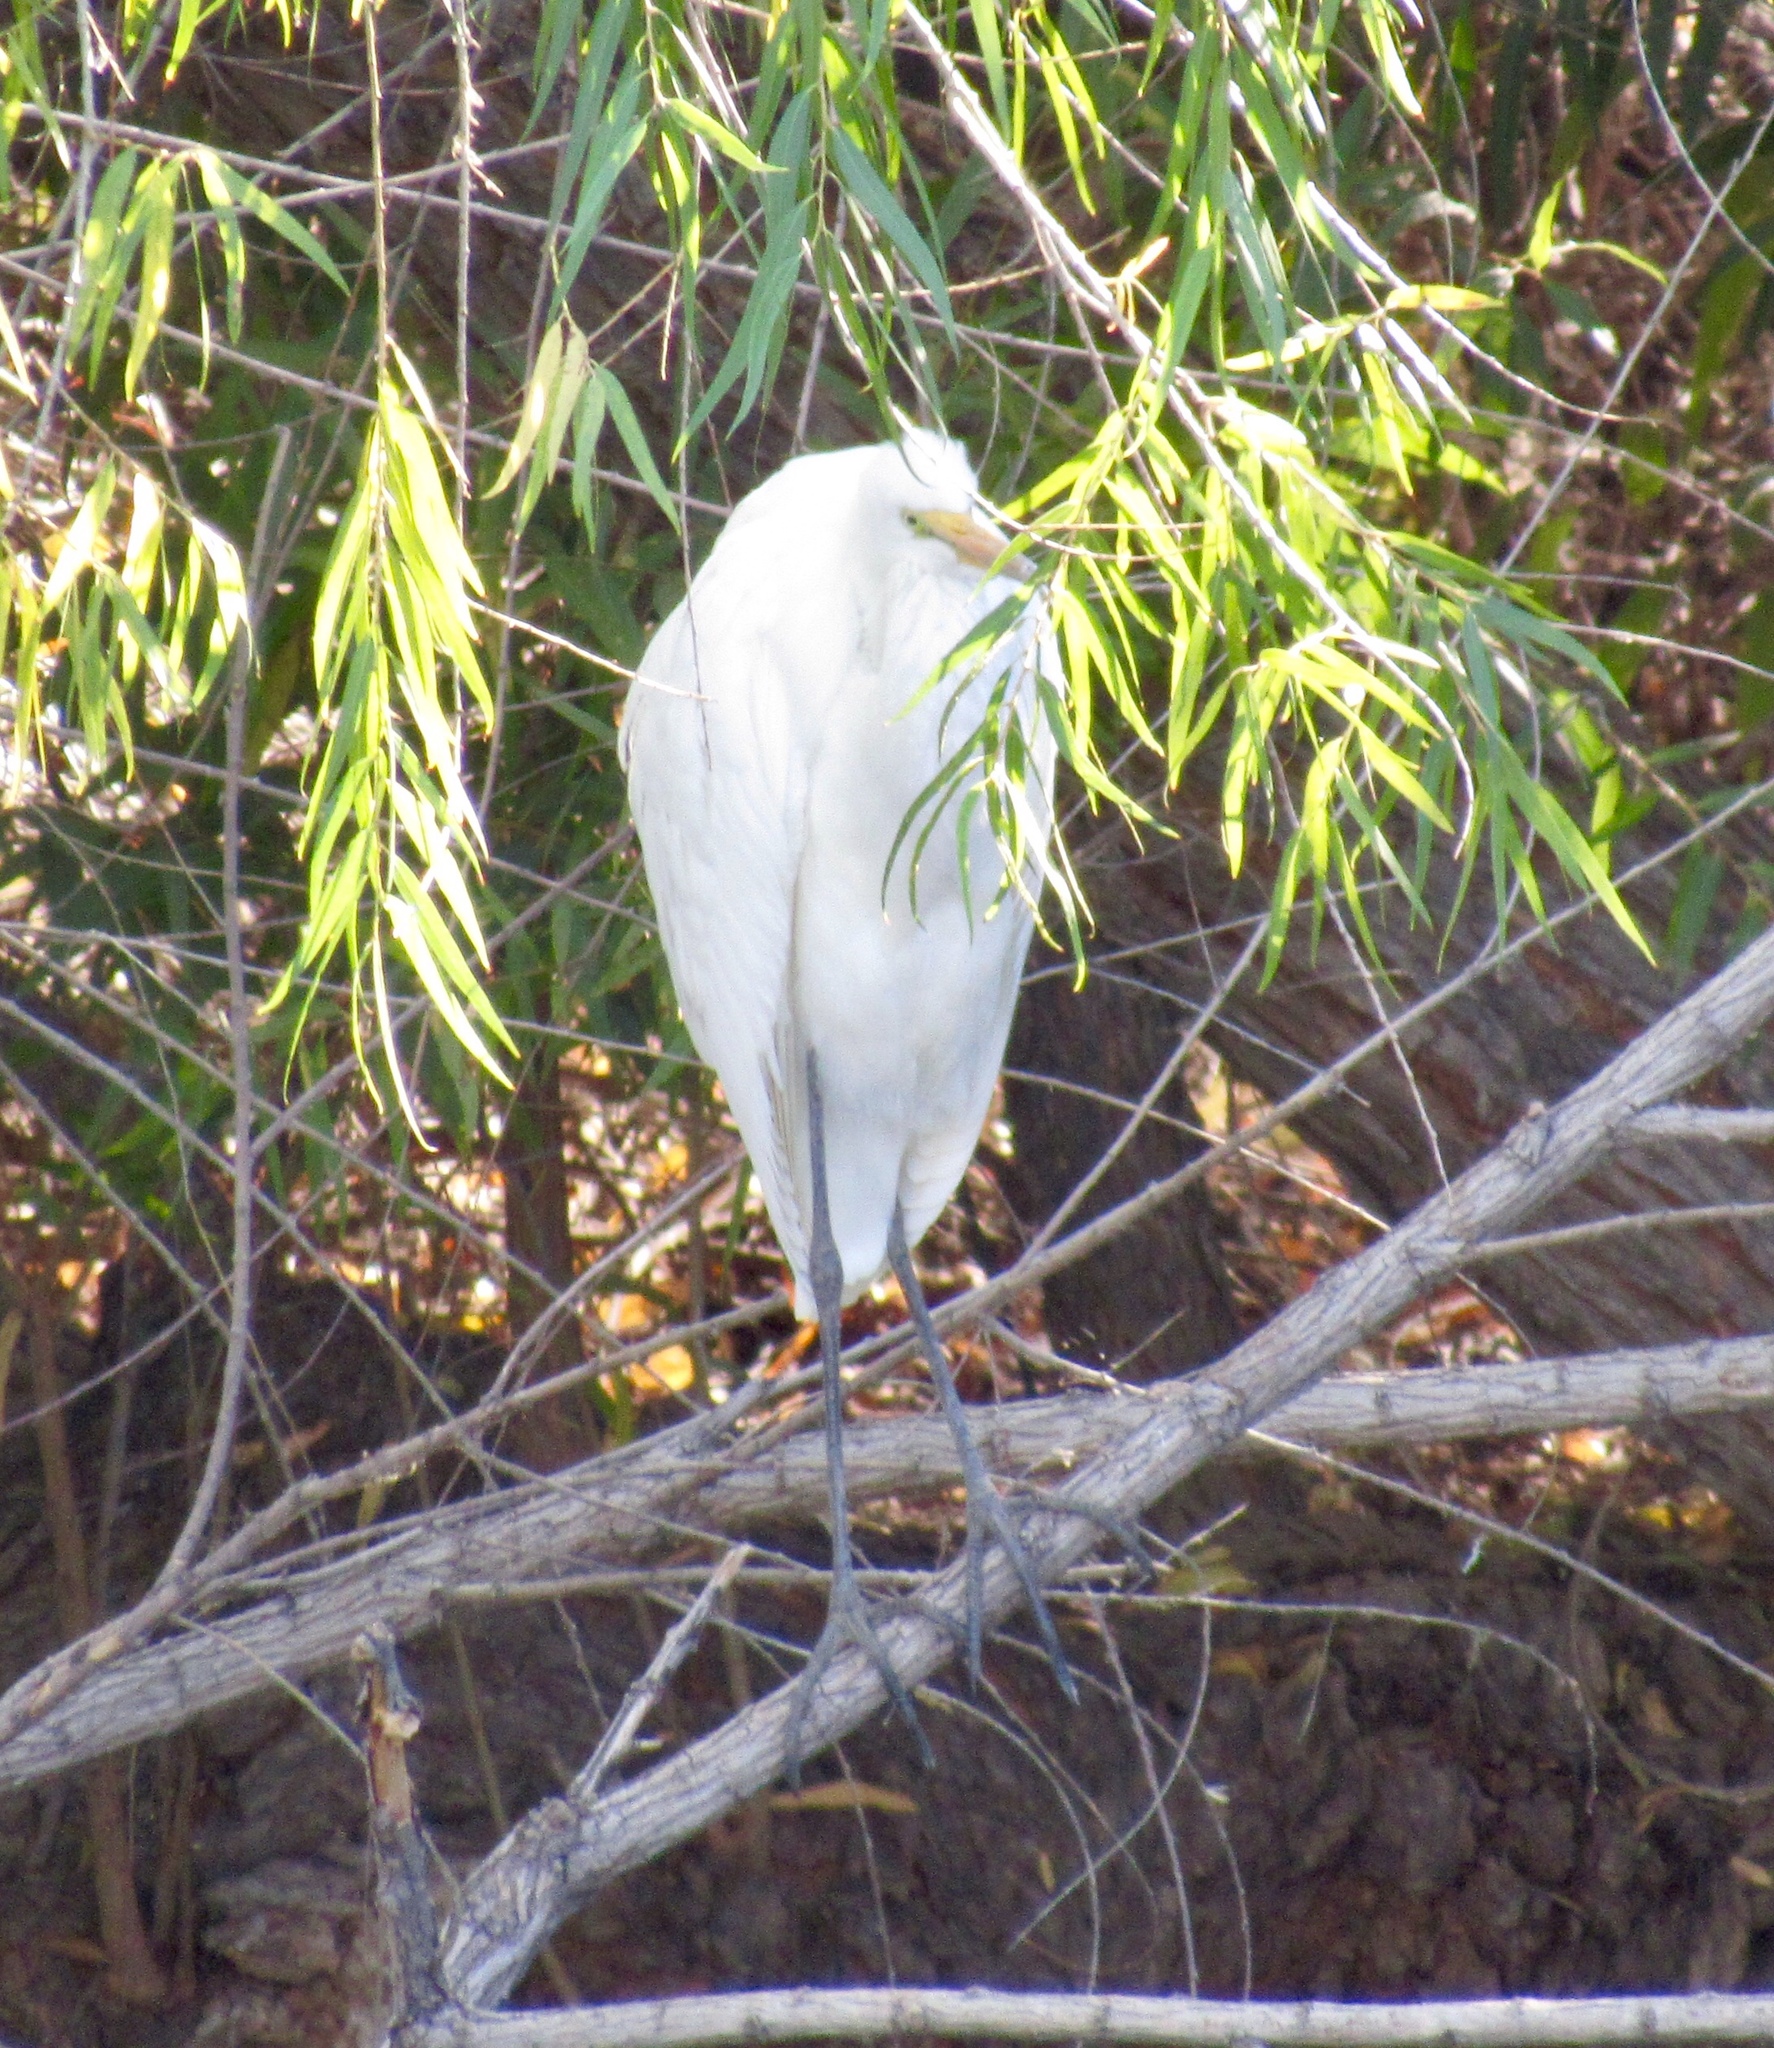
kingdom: Animalia
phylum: Chordata
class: Aves
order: Pelecaniformes
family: Ardeidae
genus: Ardea
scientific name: Ardea alba
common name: Great egret
